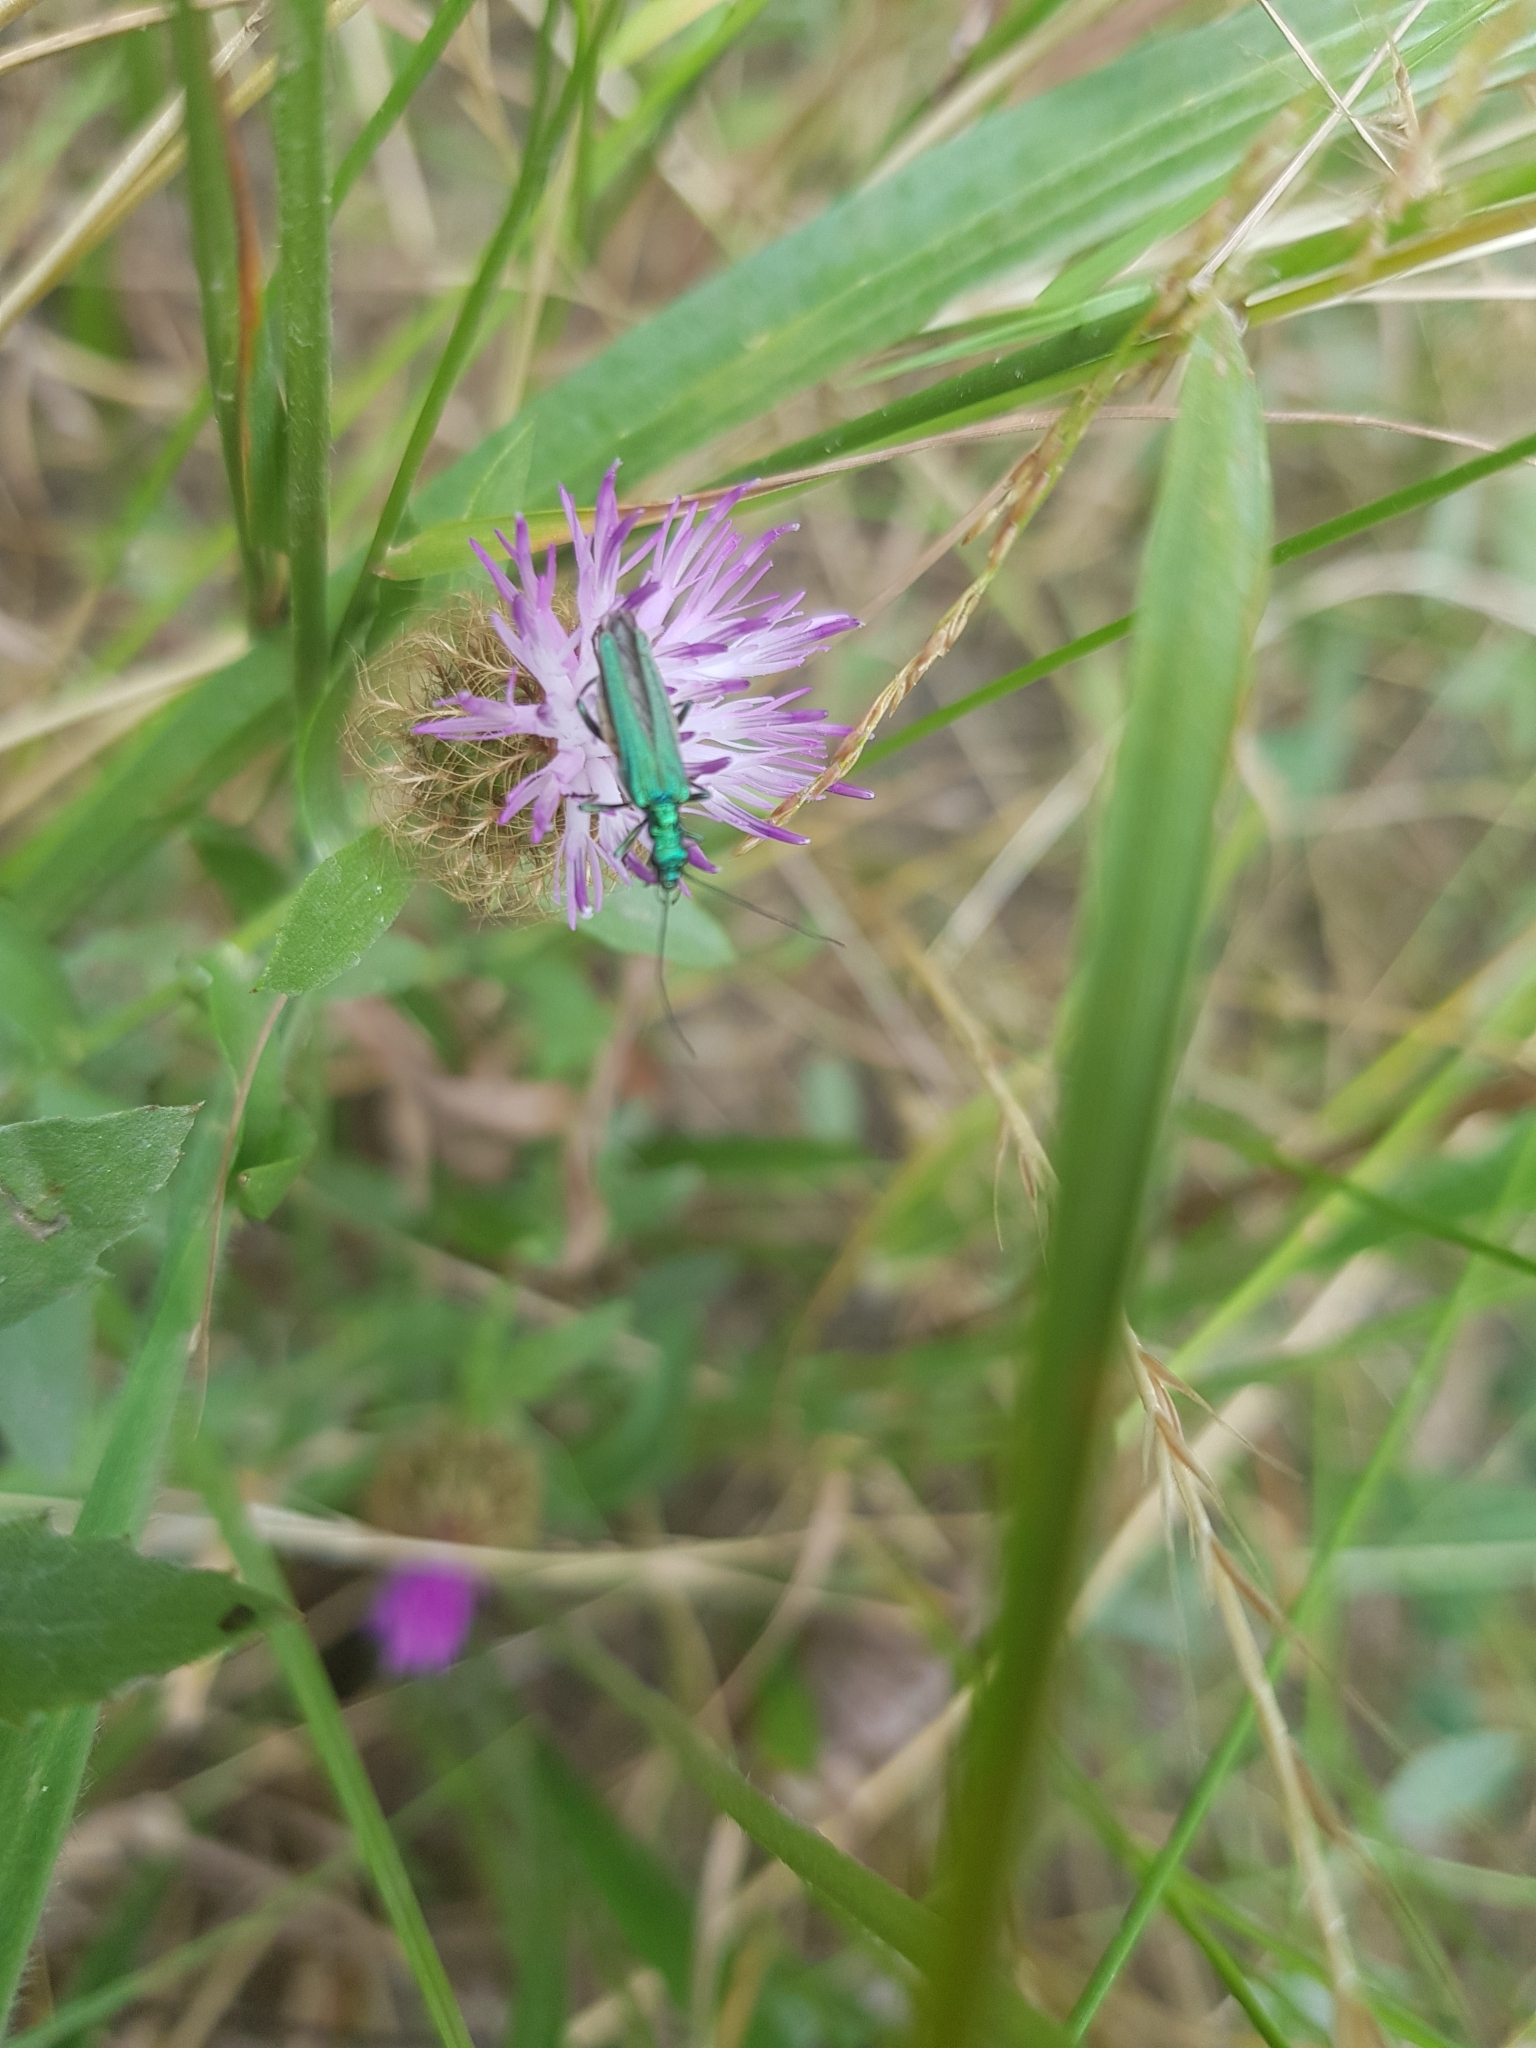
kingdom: Animalia
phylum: Arthropoda
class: Insecta
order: Coleoptera
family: Oedemeridae
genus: Oedemera
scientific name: Oedemera nobilis
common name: Swollen-thighed beetle
